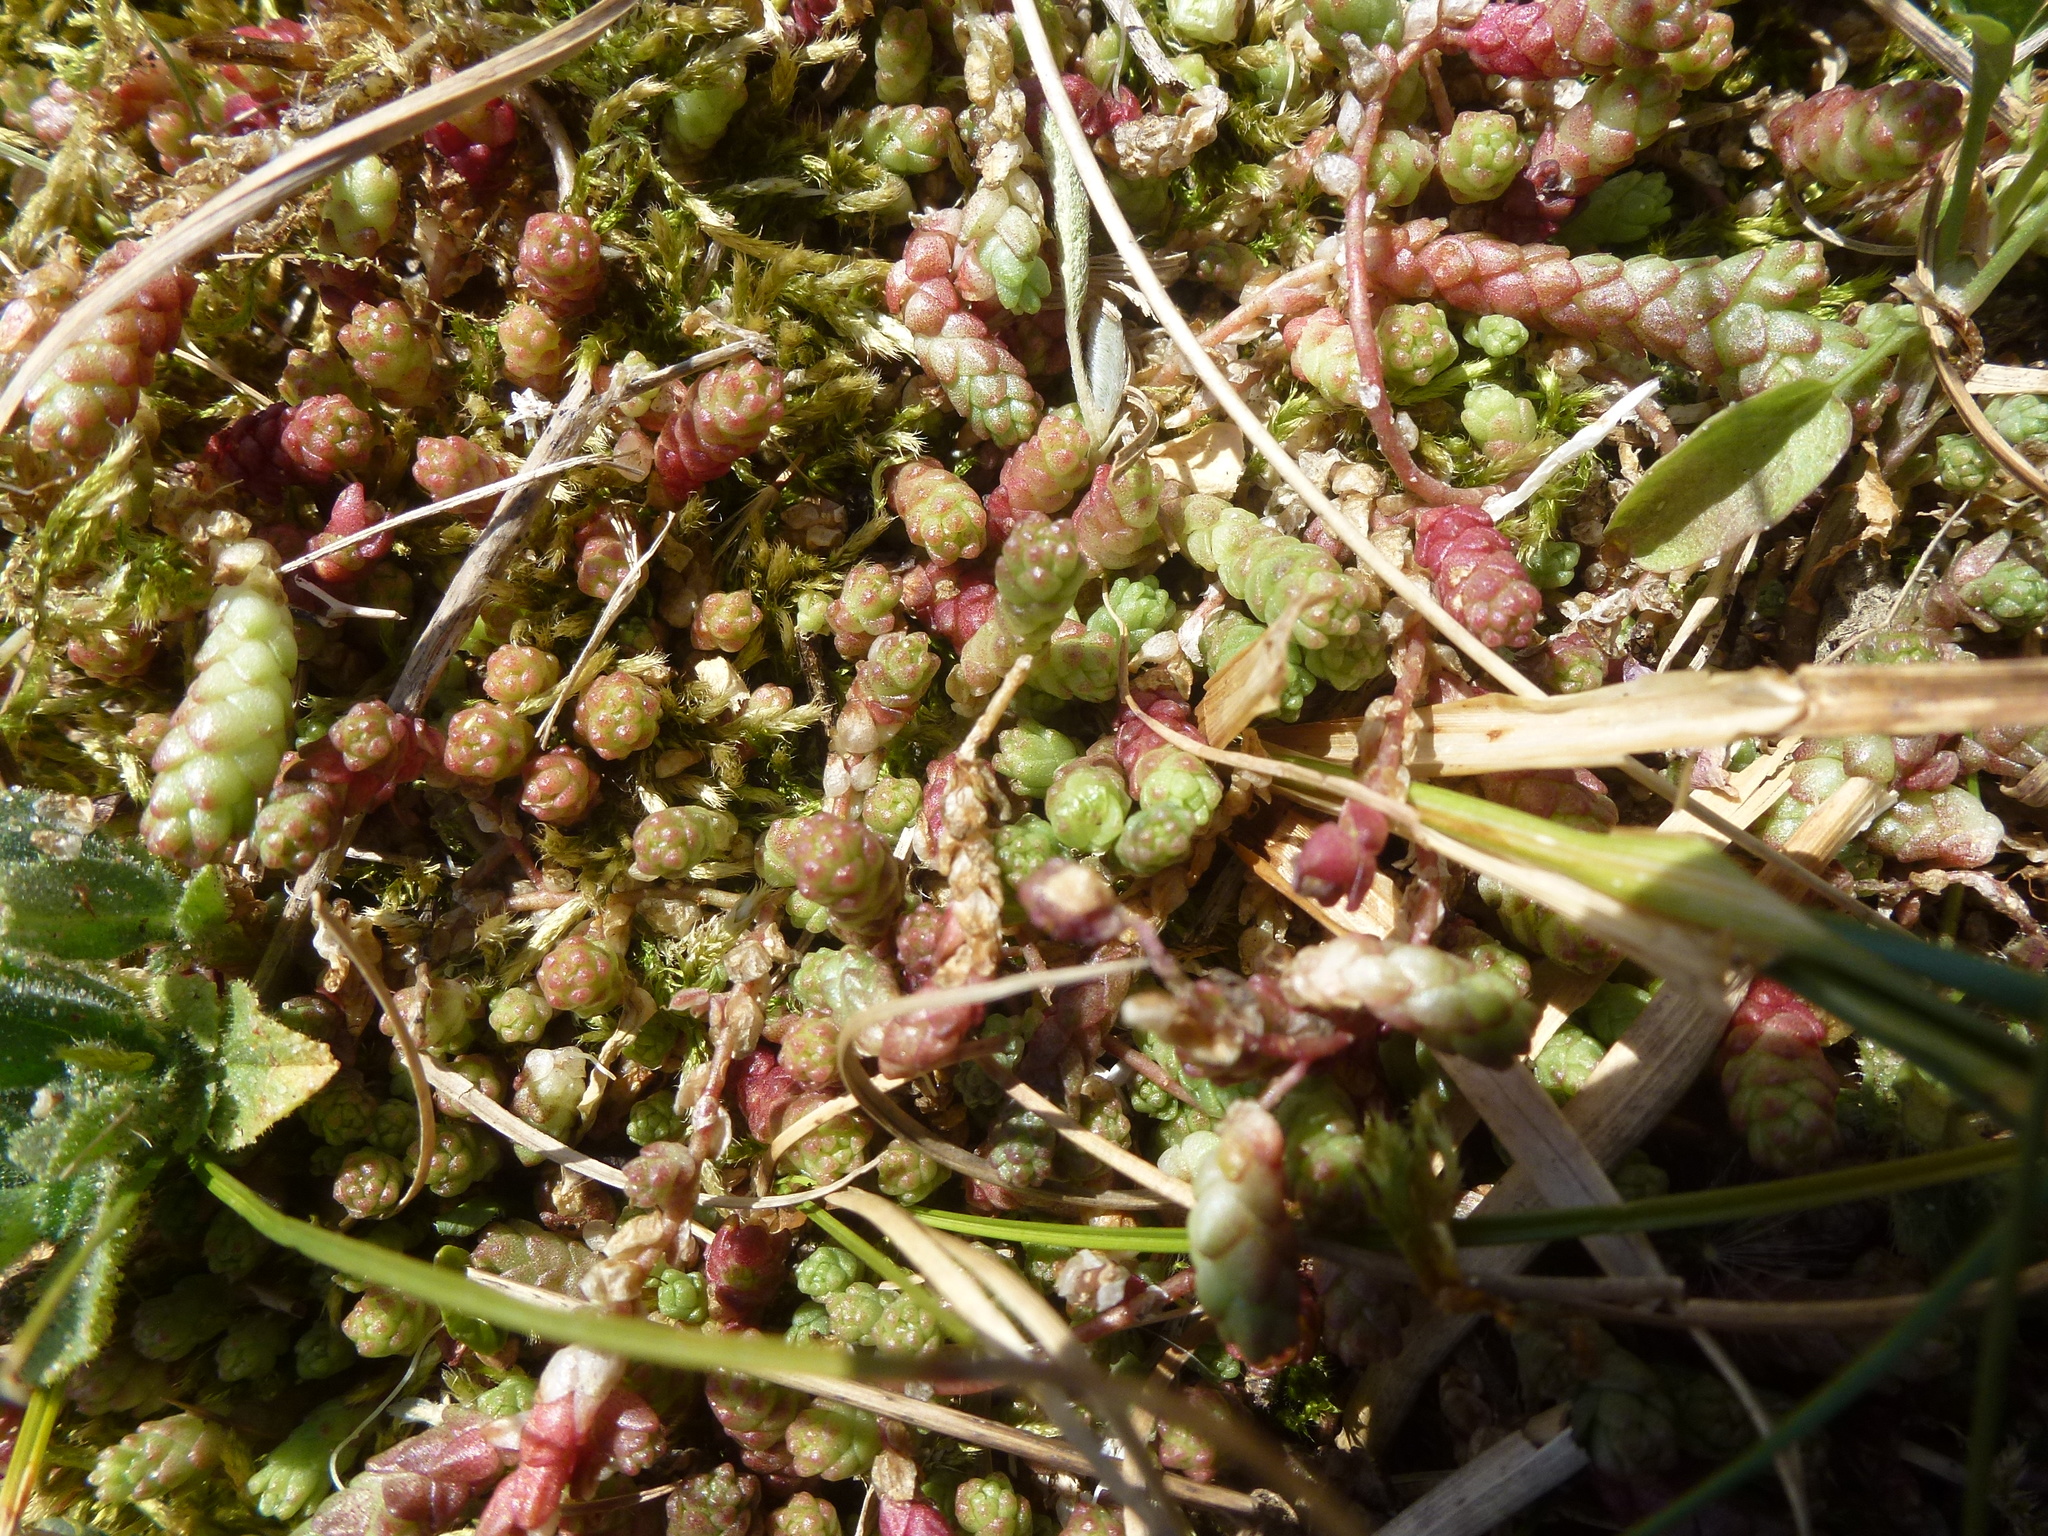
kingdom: Plantae
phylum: Tracheophyta
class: Magnoliopsida
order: Saxifragales
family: Crassulaceae
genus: Sedum
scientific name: Sedum acre
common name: Biting stonecrop
